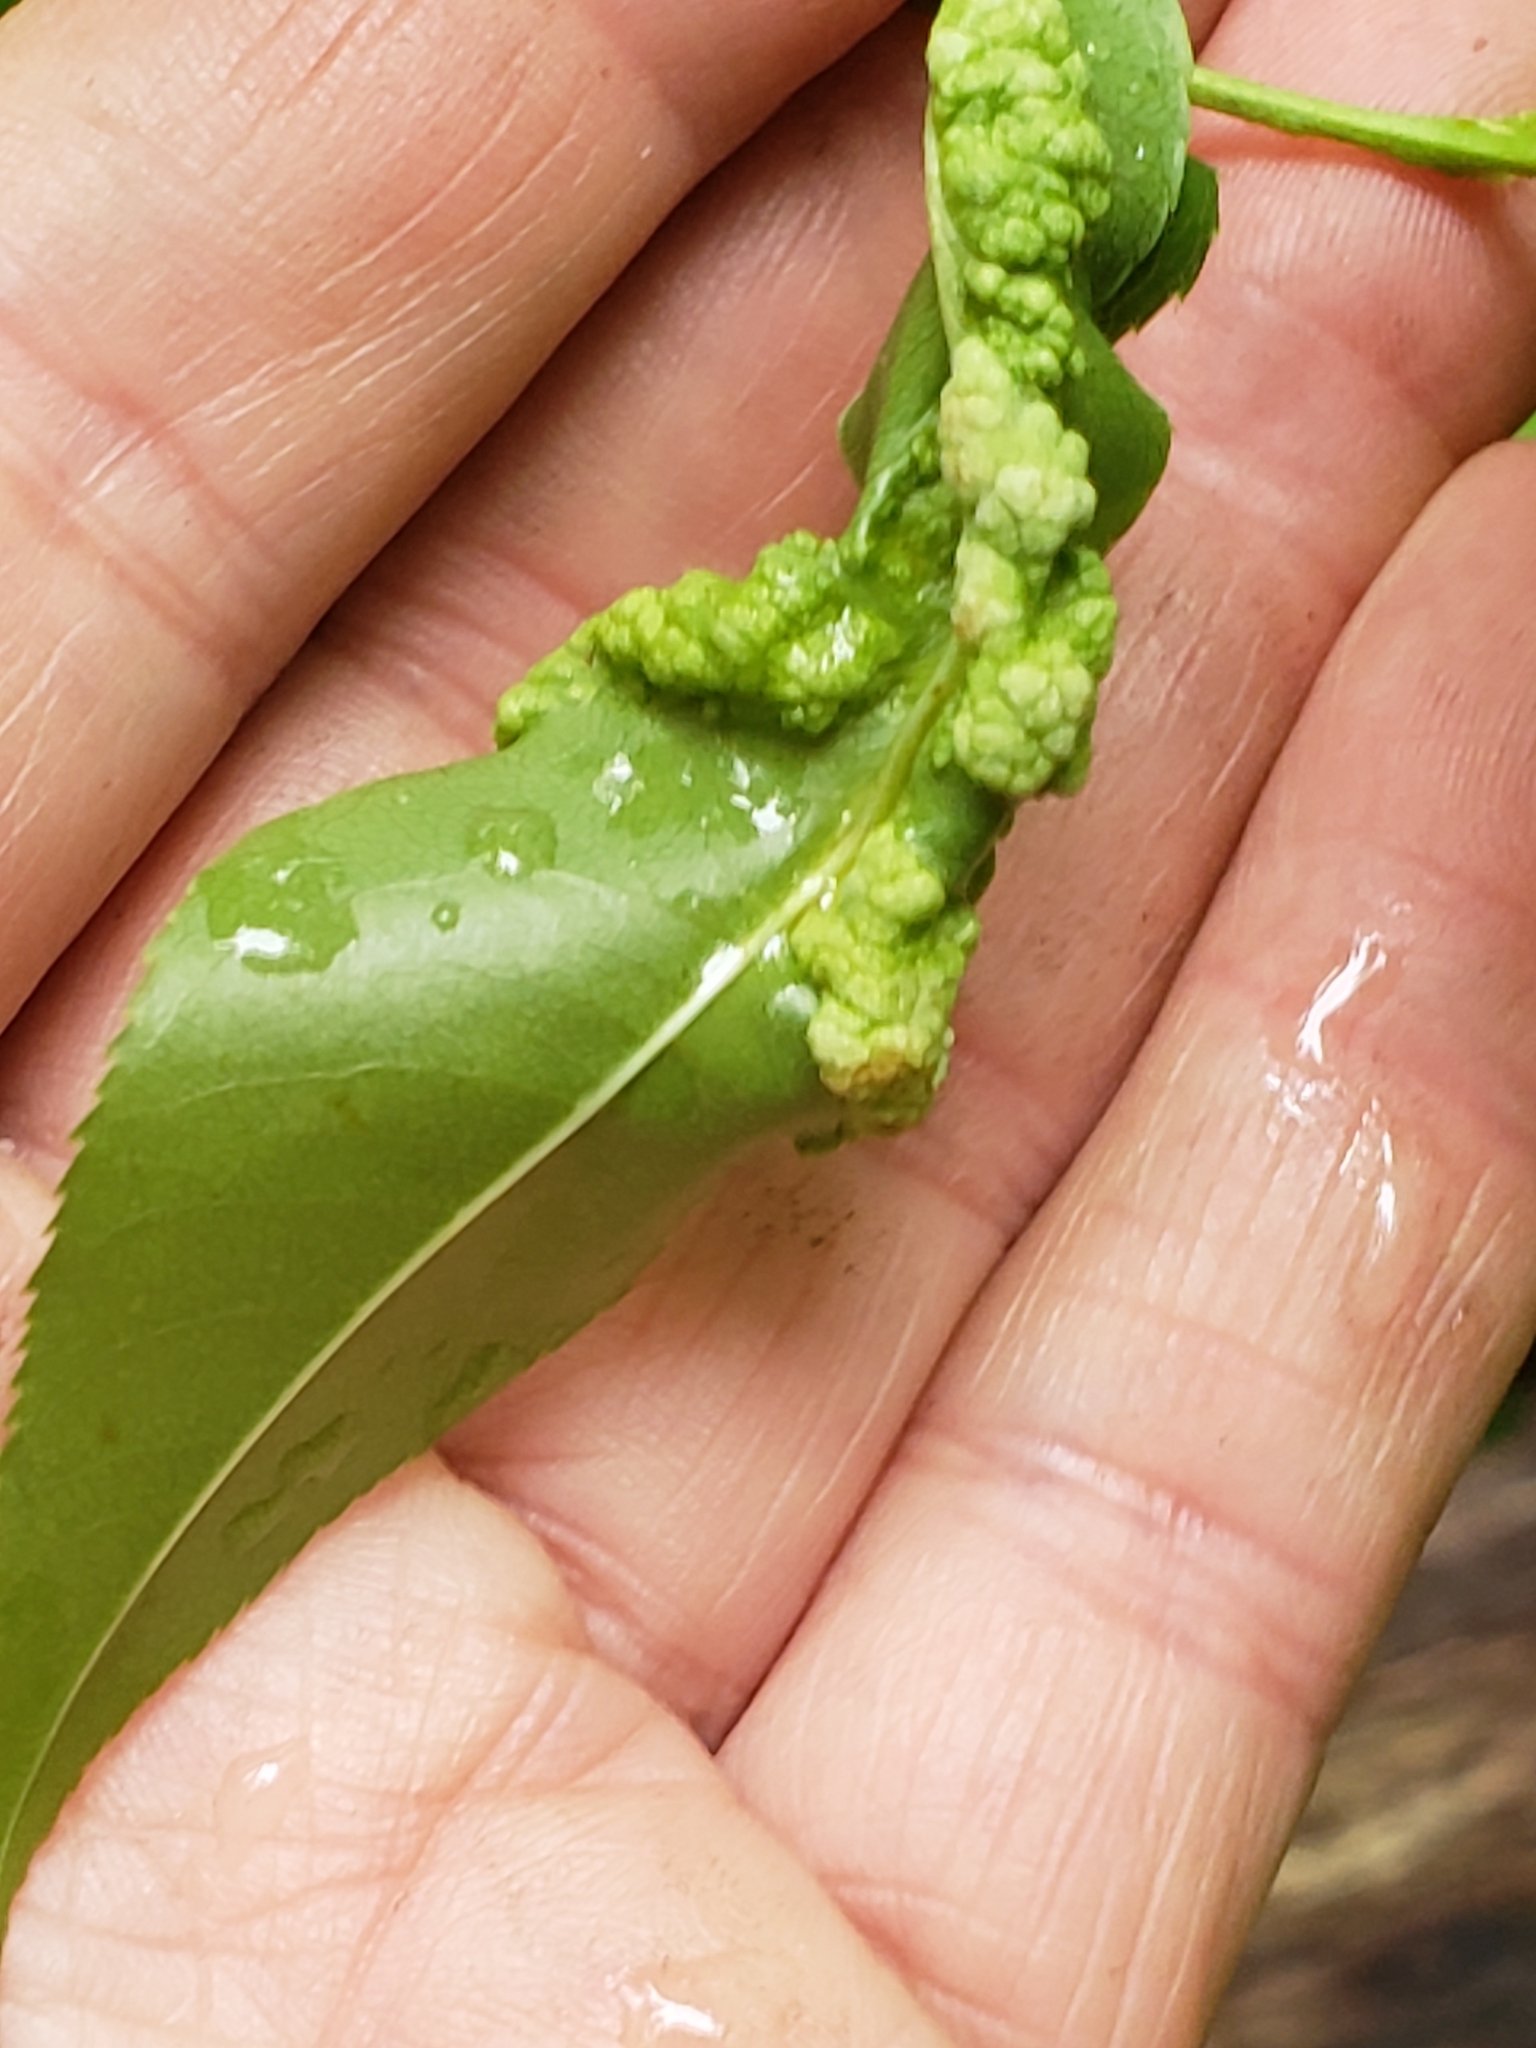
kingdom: Fungi
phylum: Ascomycota
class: Taphrinomycetes
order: Taphrinales
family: Taphrinaceae
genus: Taphrina
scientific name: Taphrina farlowii
